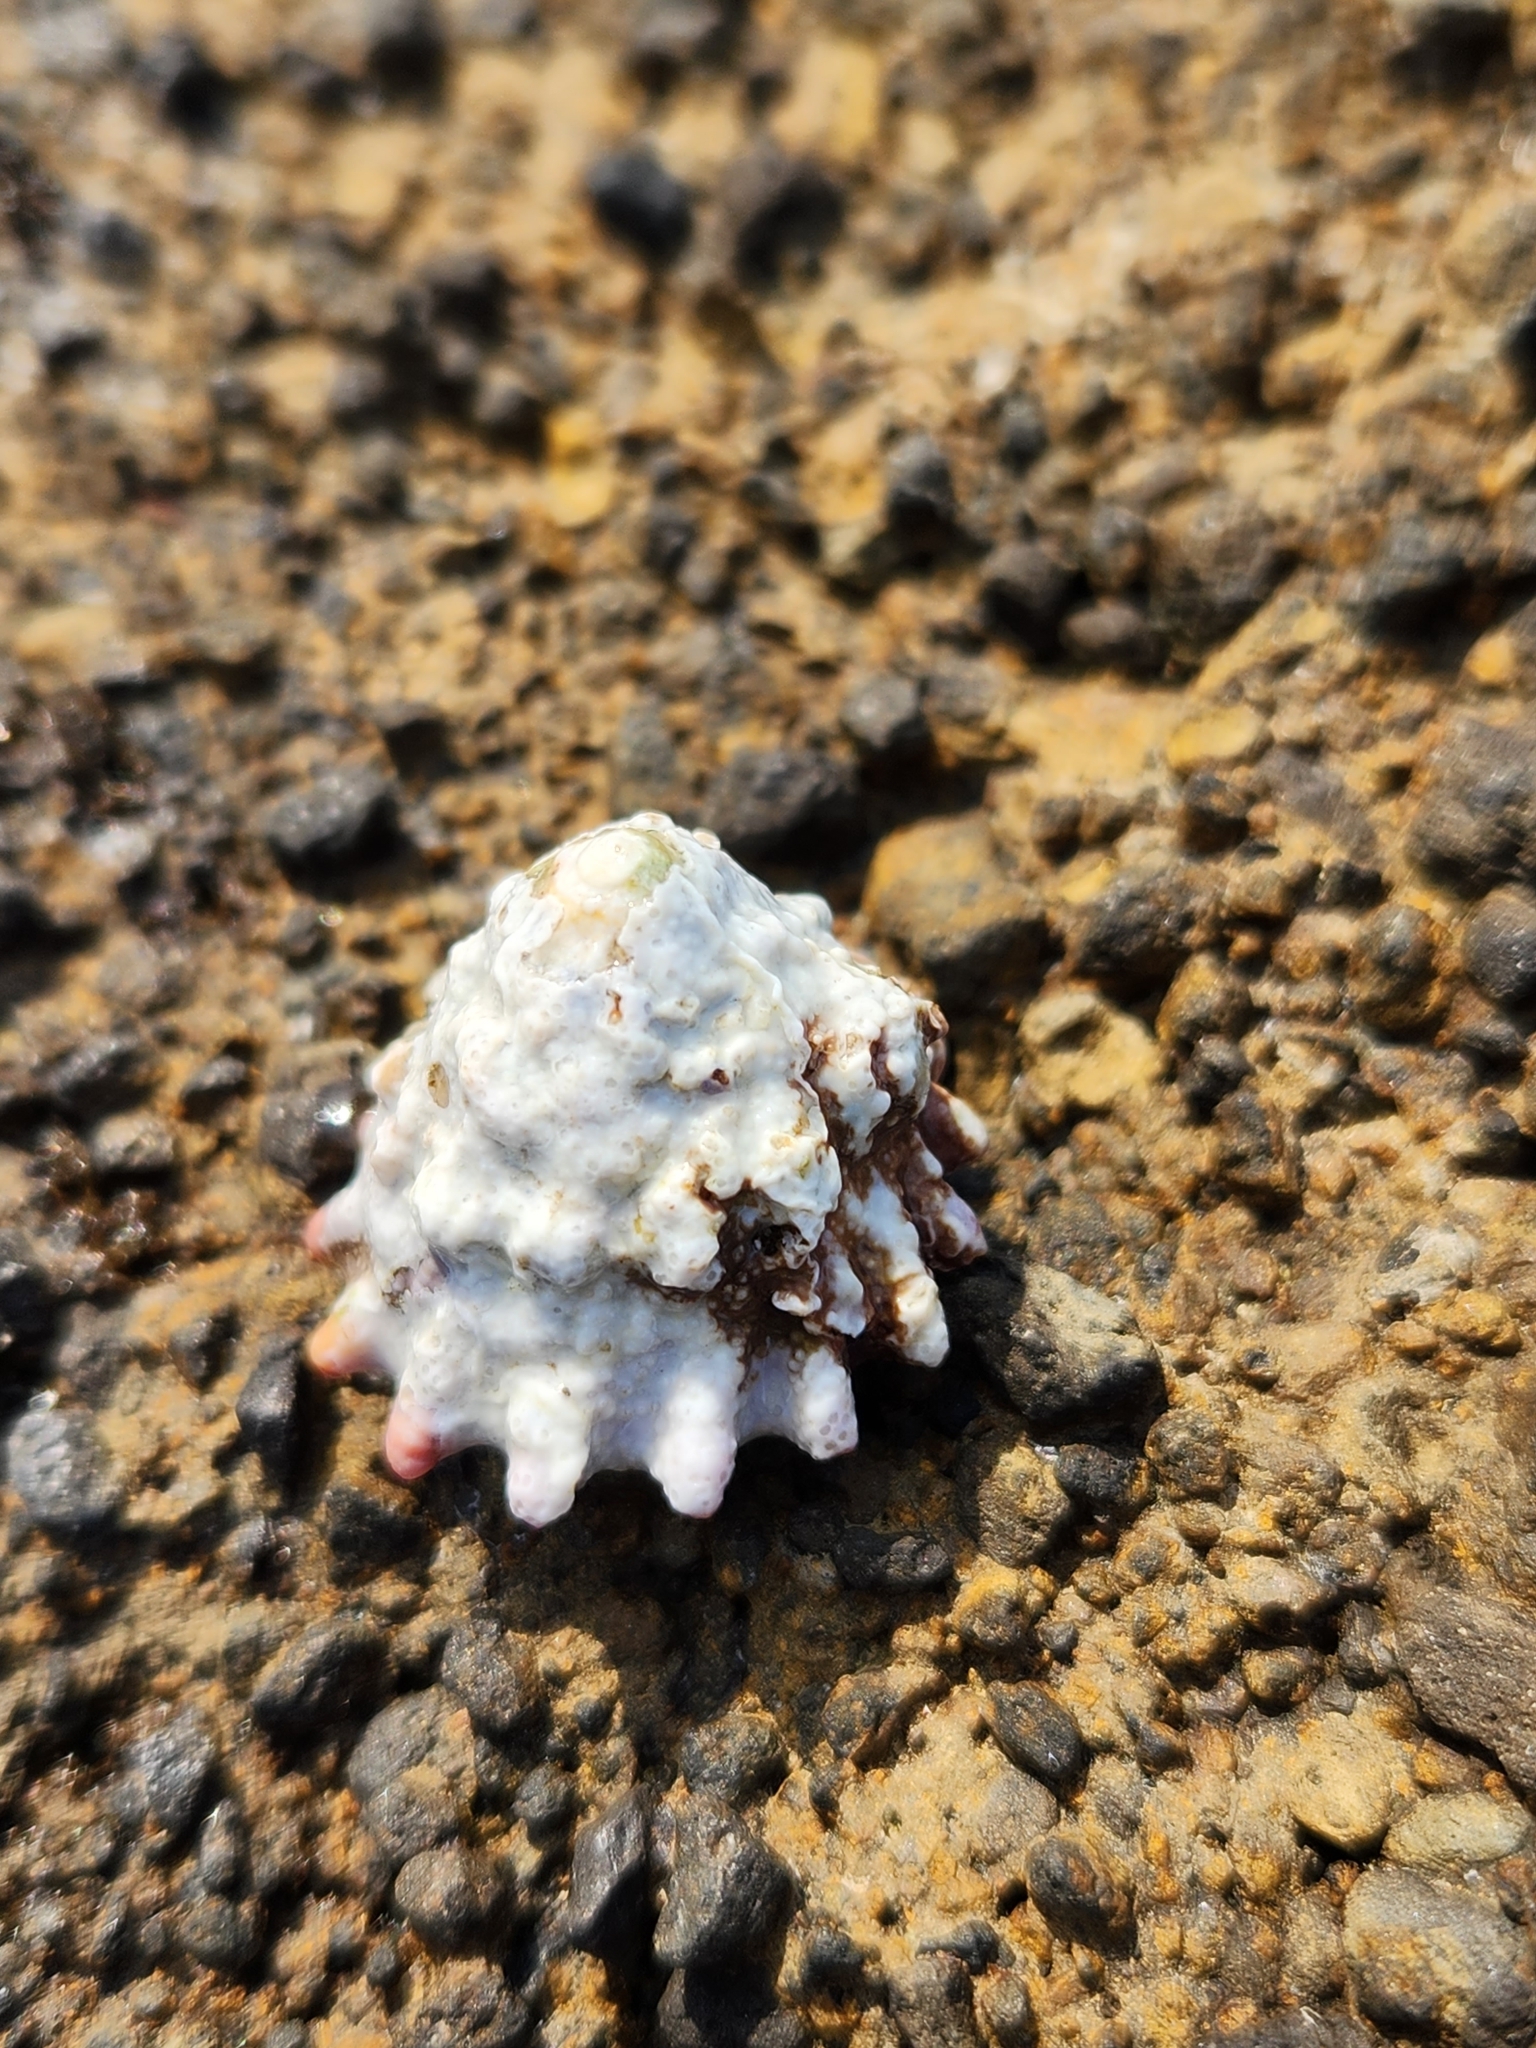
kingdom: Animalia
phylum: Mollusca
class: Gastropoda
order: Trochida
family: Turbinidae
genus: Astralium
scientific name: Astralium haematragum
